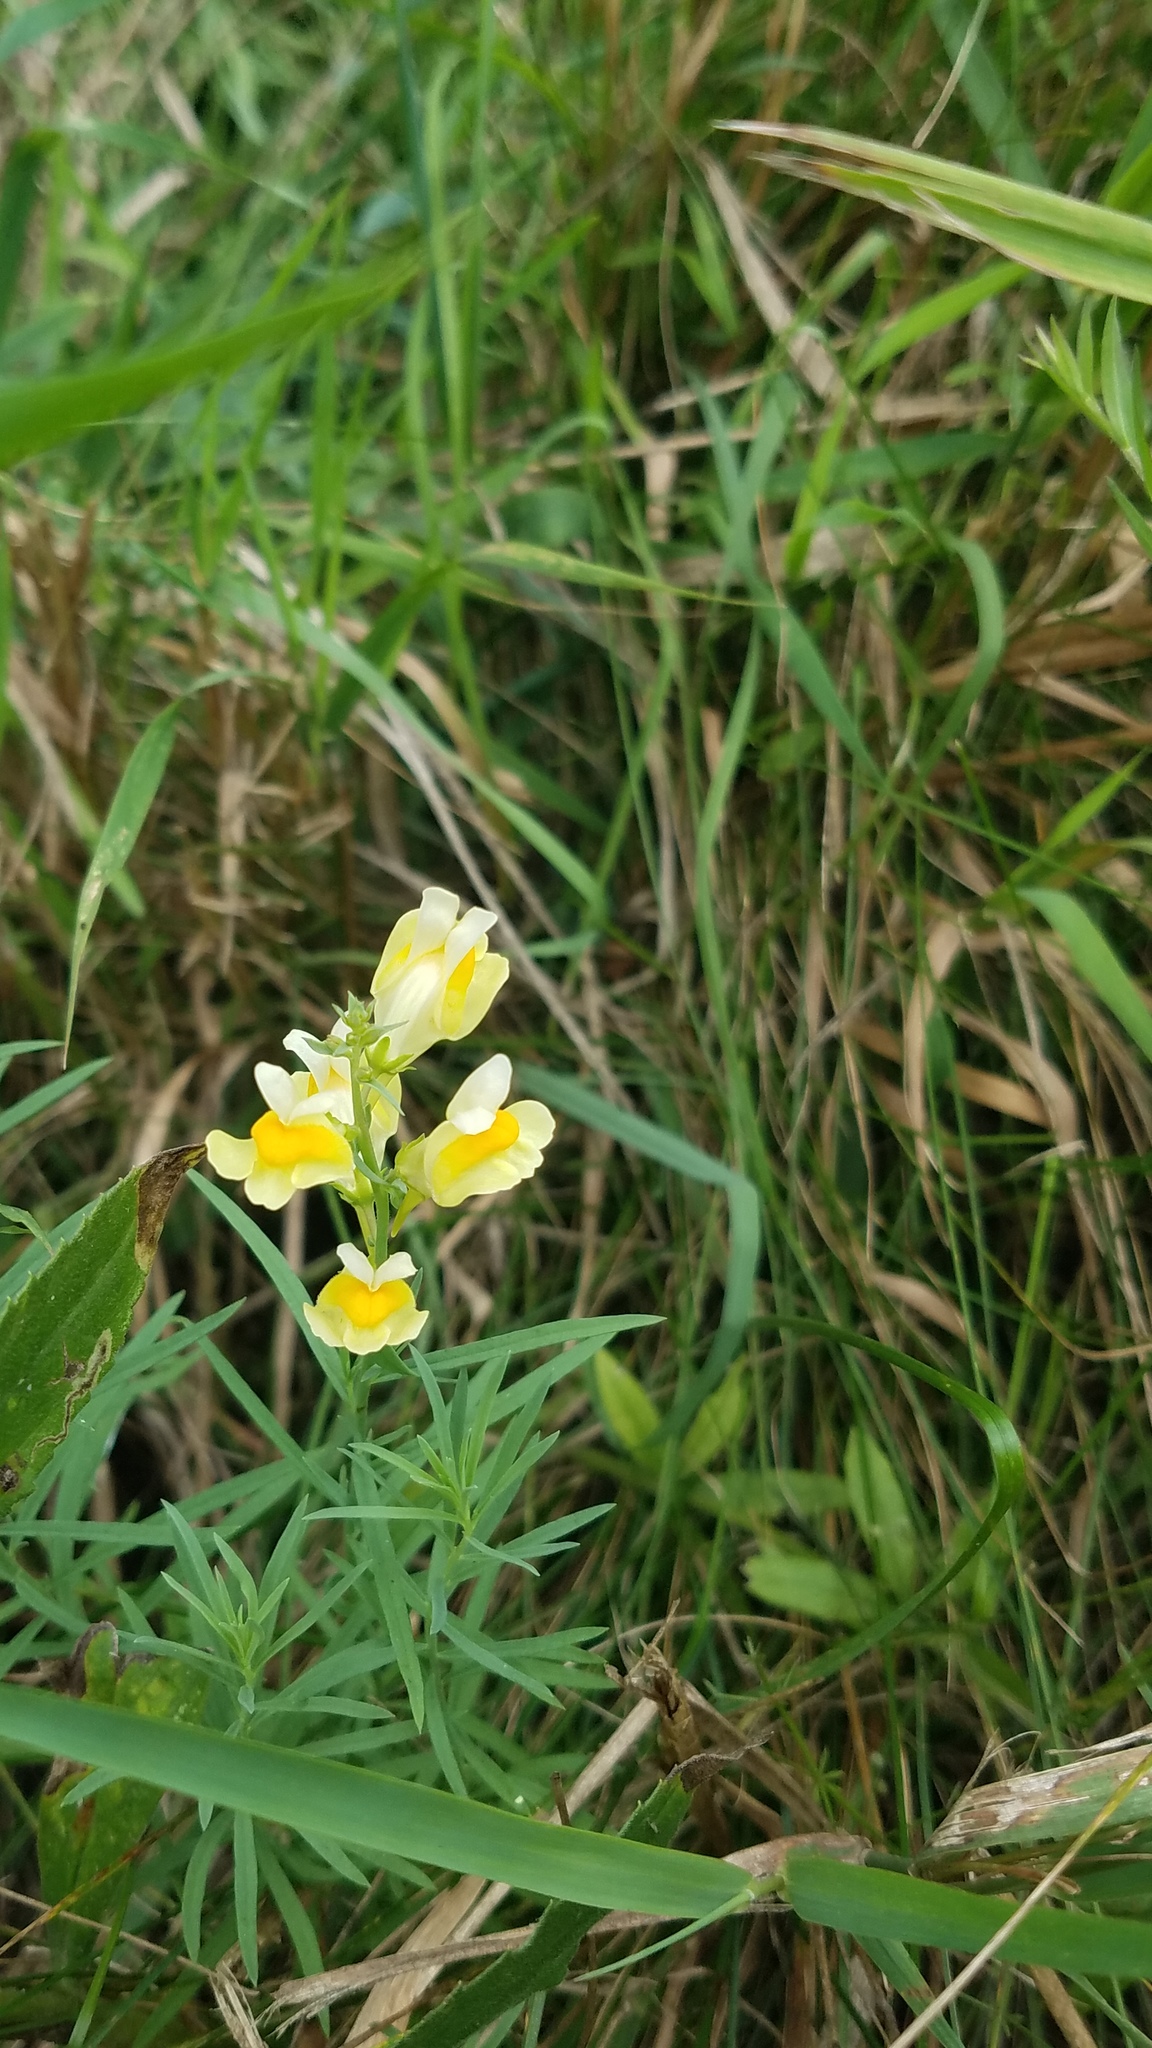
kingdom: Plantae
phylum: Tracheophyta
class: Magnoliopsida
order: Lamiales
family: Plantaginaceae
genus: Linaria
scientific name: Linaria vulgaris
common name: Butter and eggs
